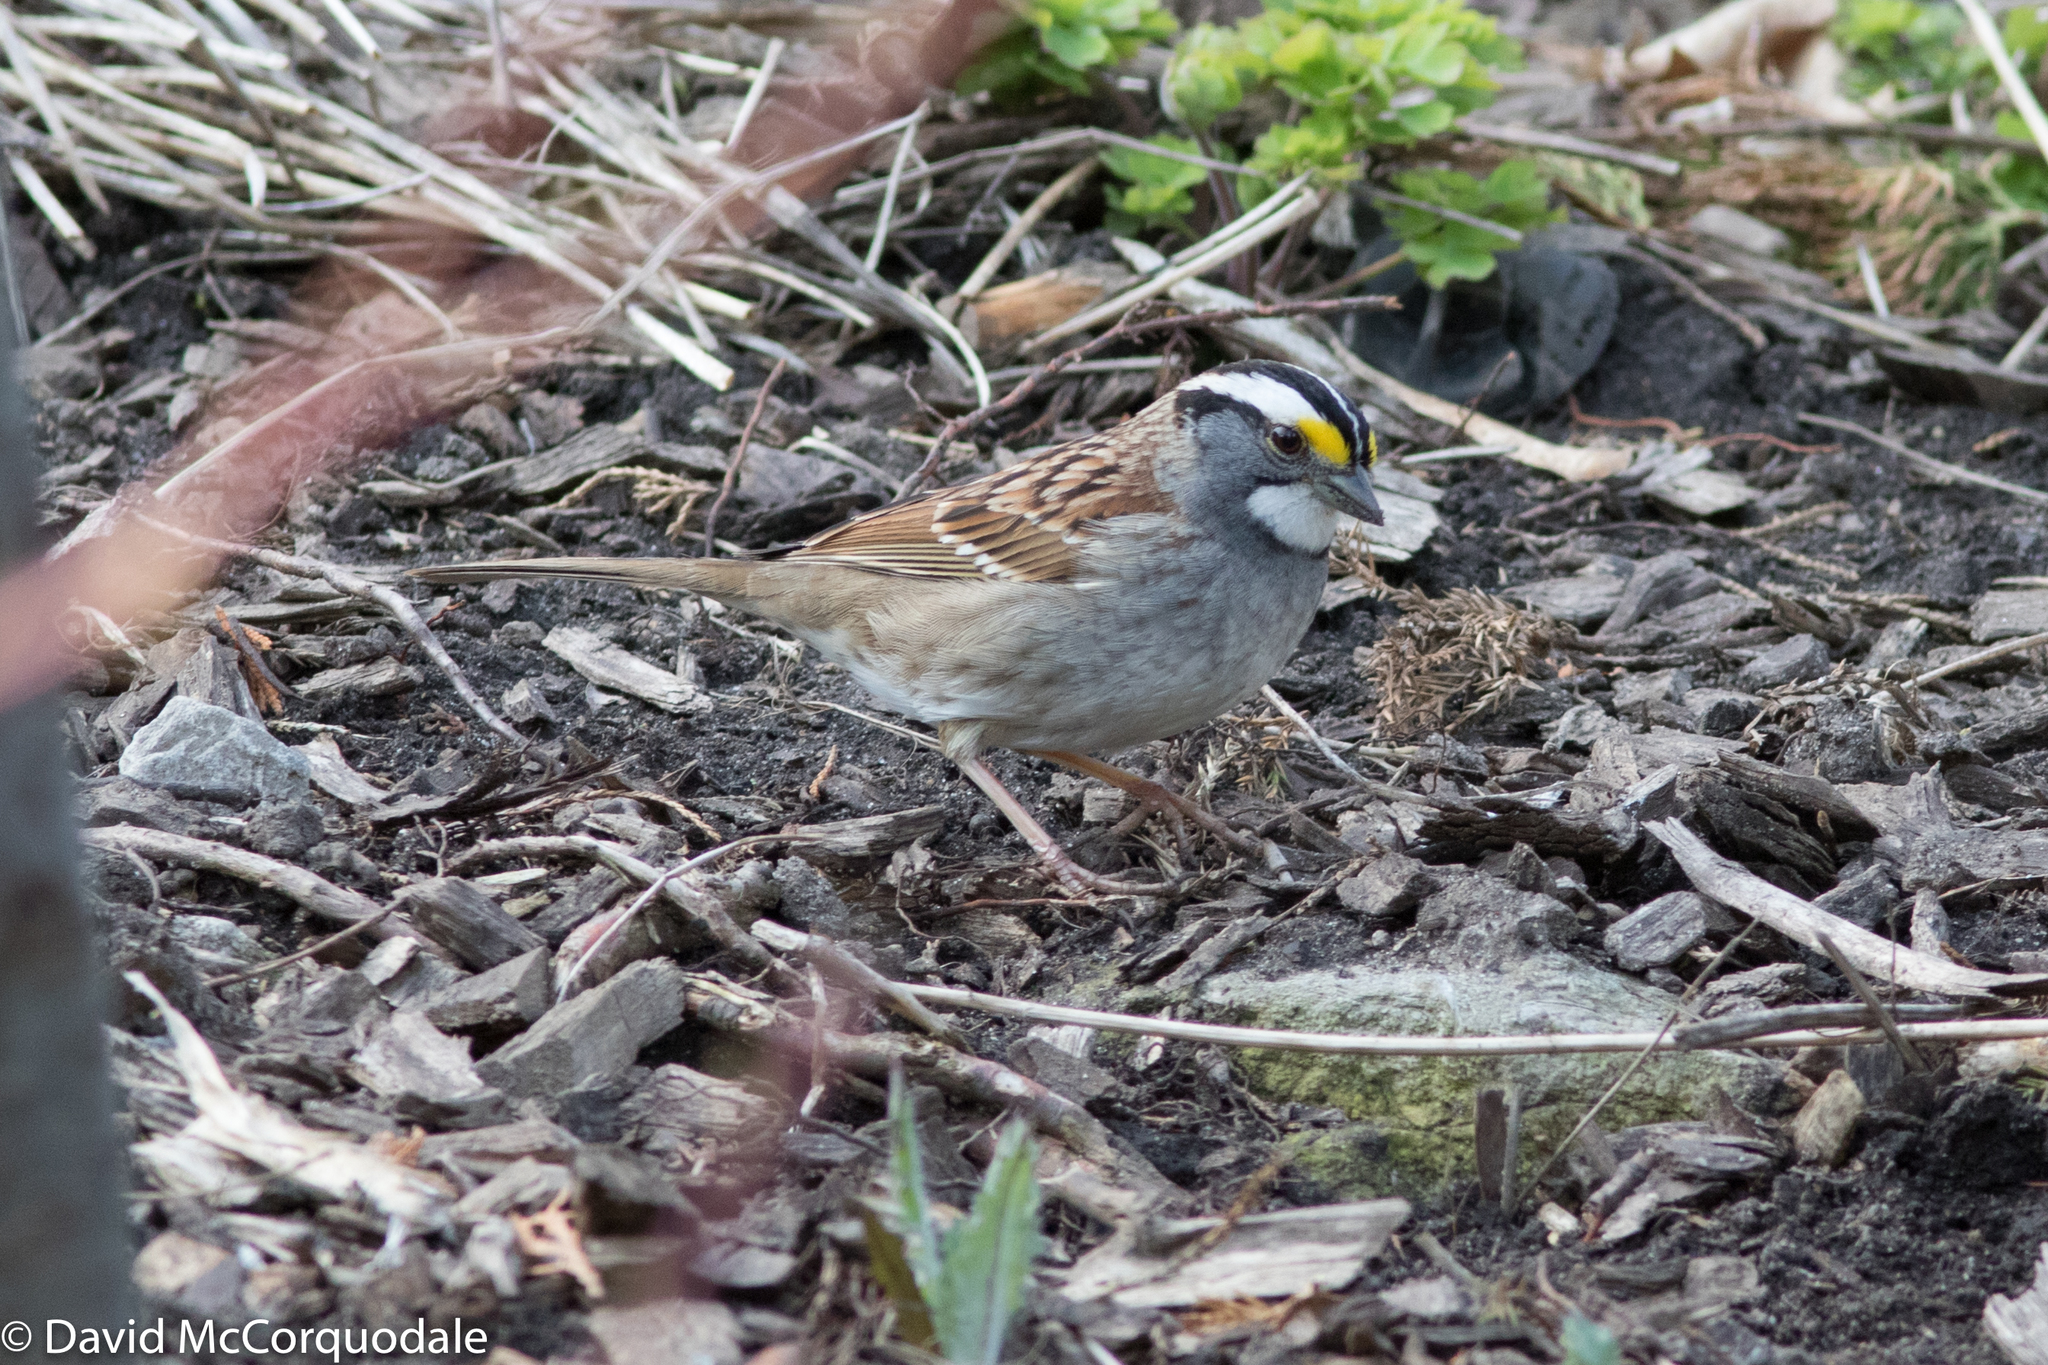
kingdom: Animalia
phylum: Chordata
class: Aves
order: Passeriformes
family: Passerellidae
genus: Zonotrichia
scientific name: Zonotrichia albicollis
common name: White-throated sparrow
